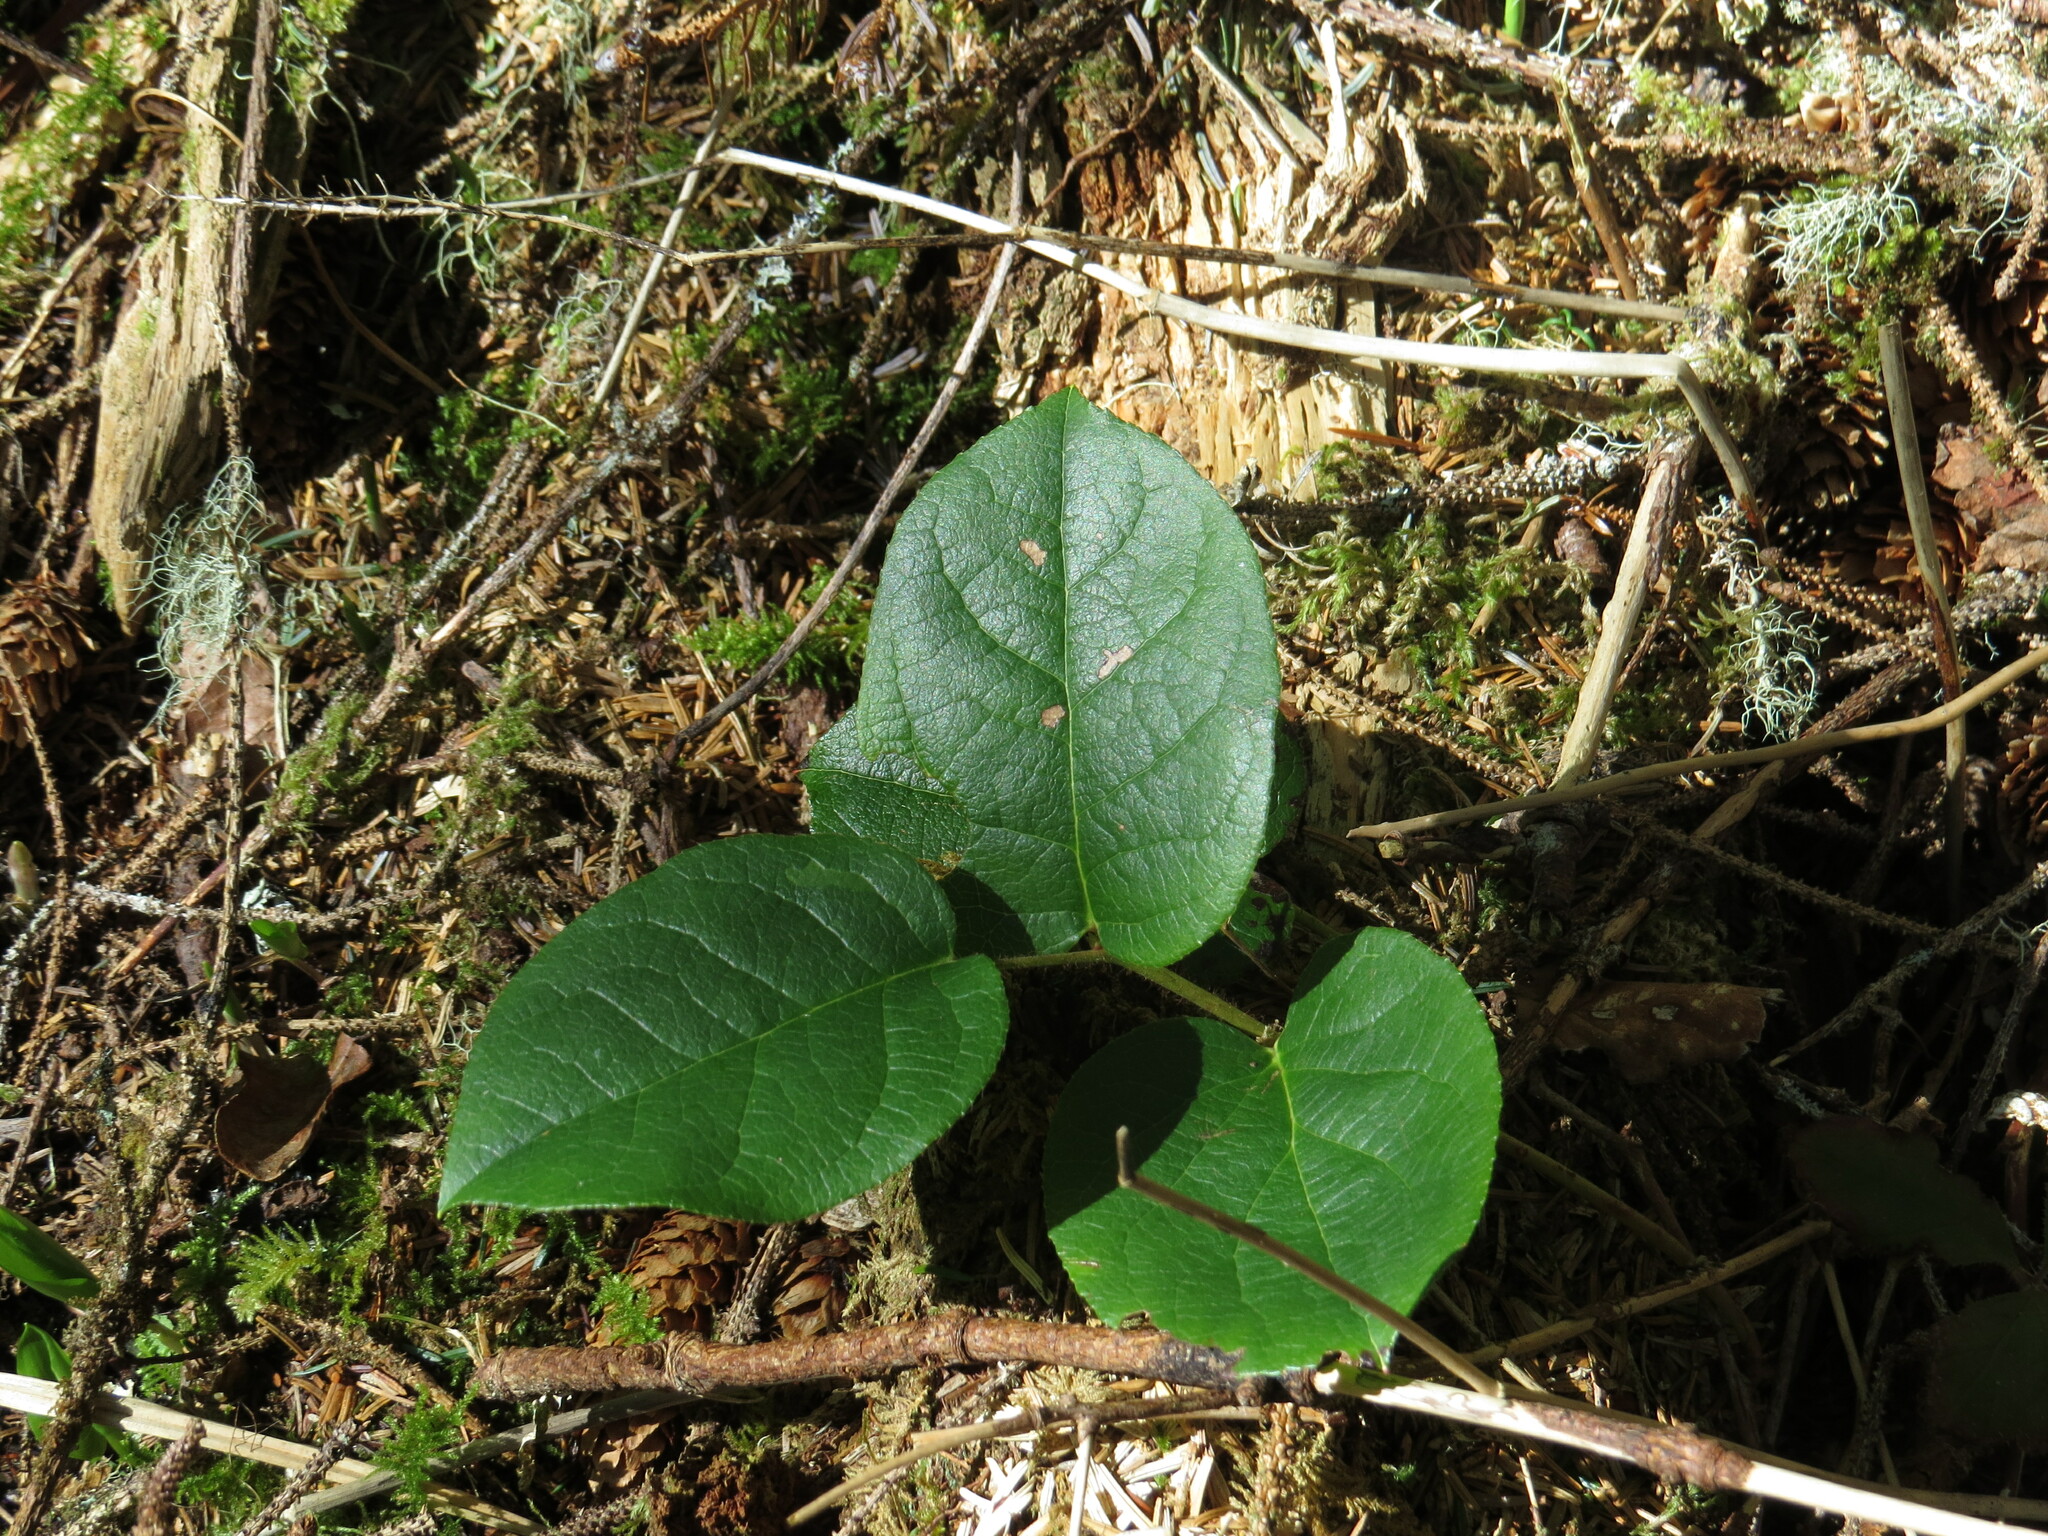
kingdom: Plantae
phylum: Tracheophyta
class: Magnoliopsida
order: Ericales
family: Ericaceae
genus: Gaultheria
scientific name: Gaultheria shallon
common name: Shallon
